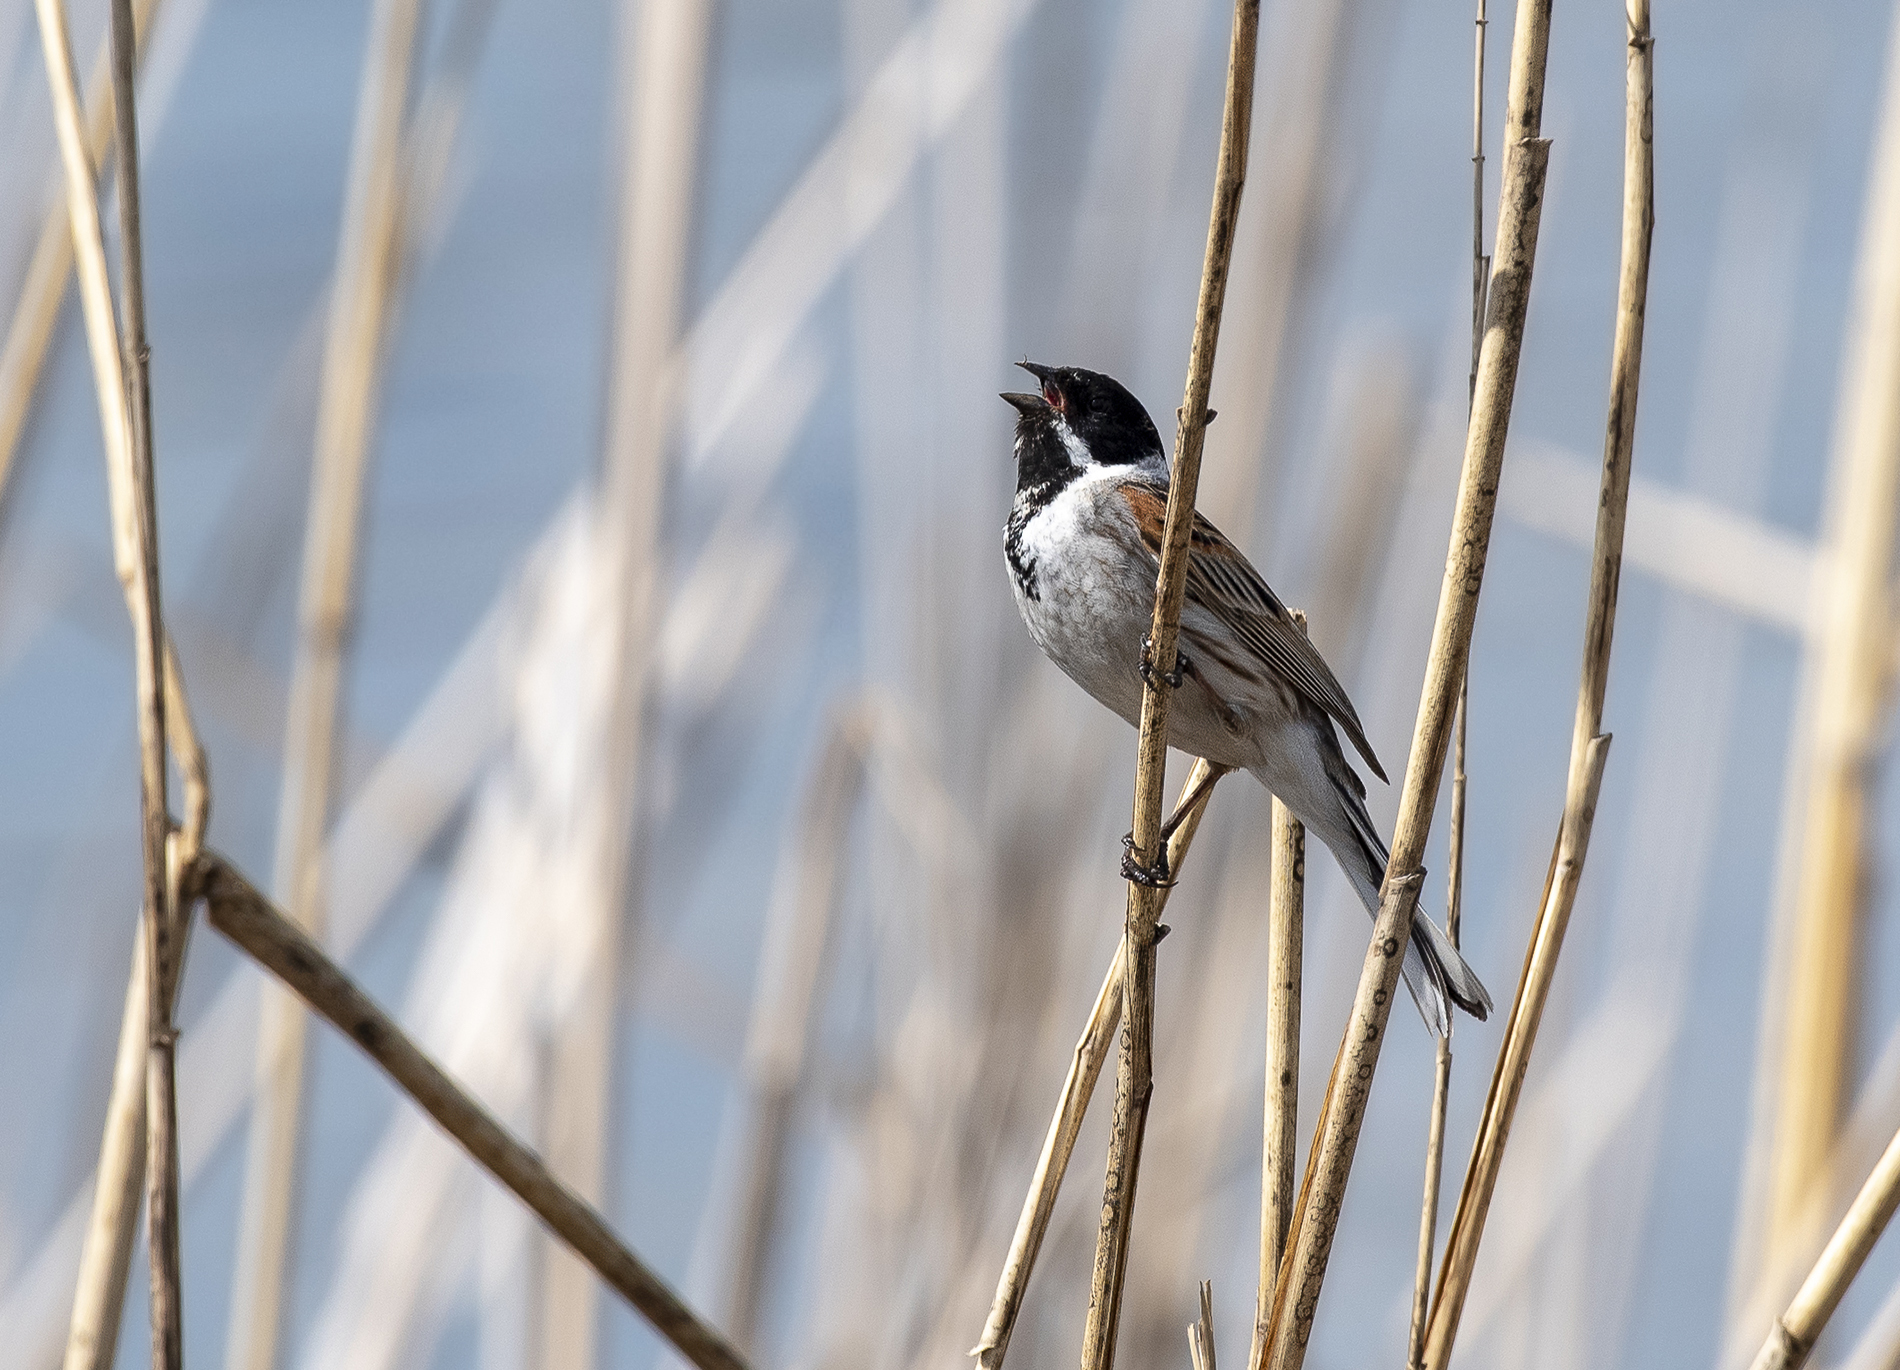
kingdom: Animalia
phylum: Chordata
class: Aves
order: Passeriformes
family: Emberizidae
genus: Emberiza
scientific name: Emberiza schoeniclus
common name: Reed bunting
